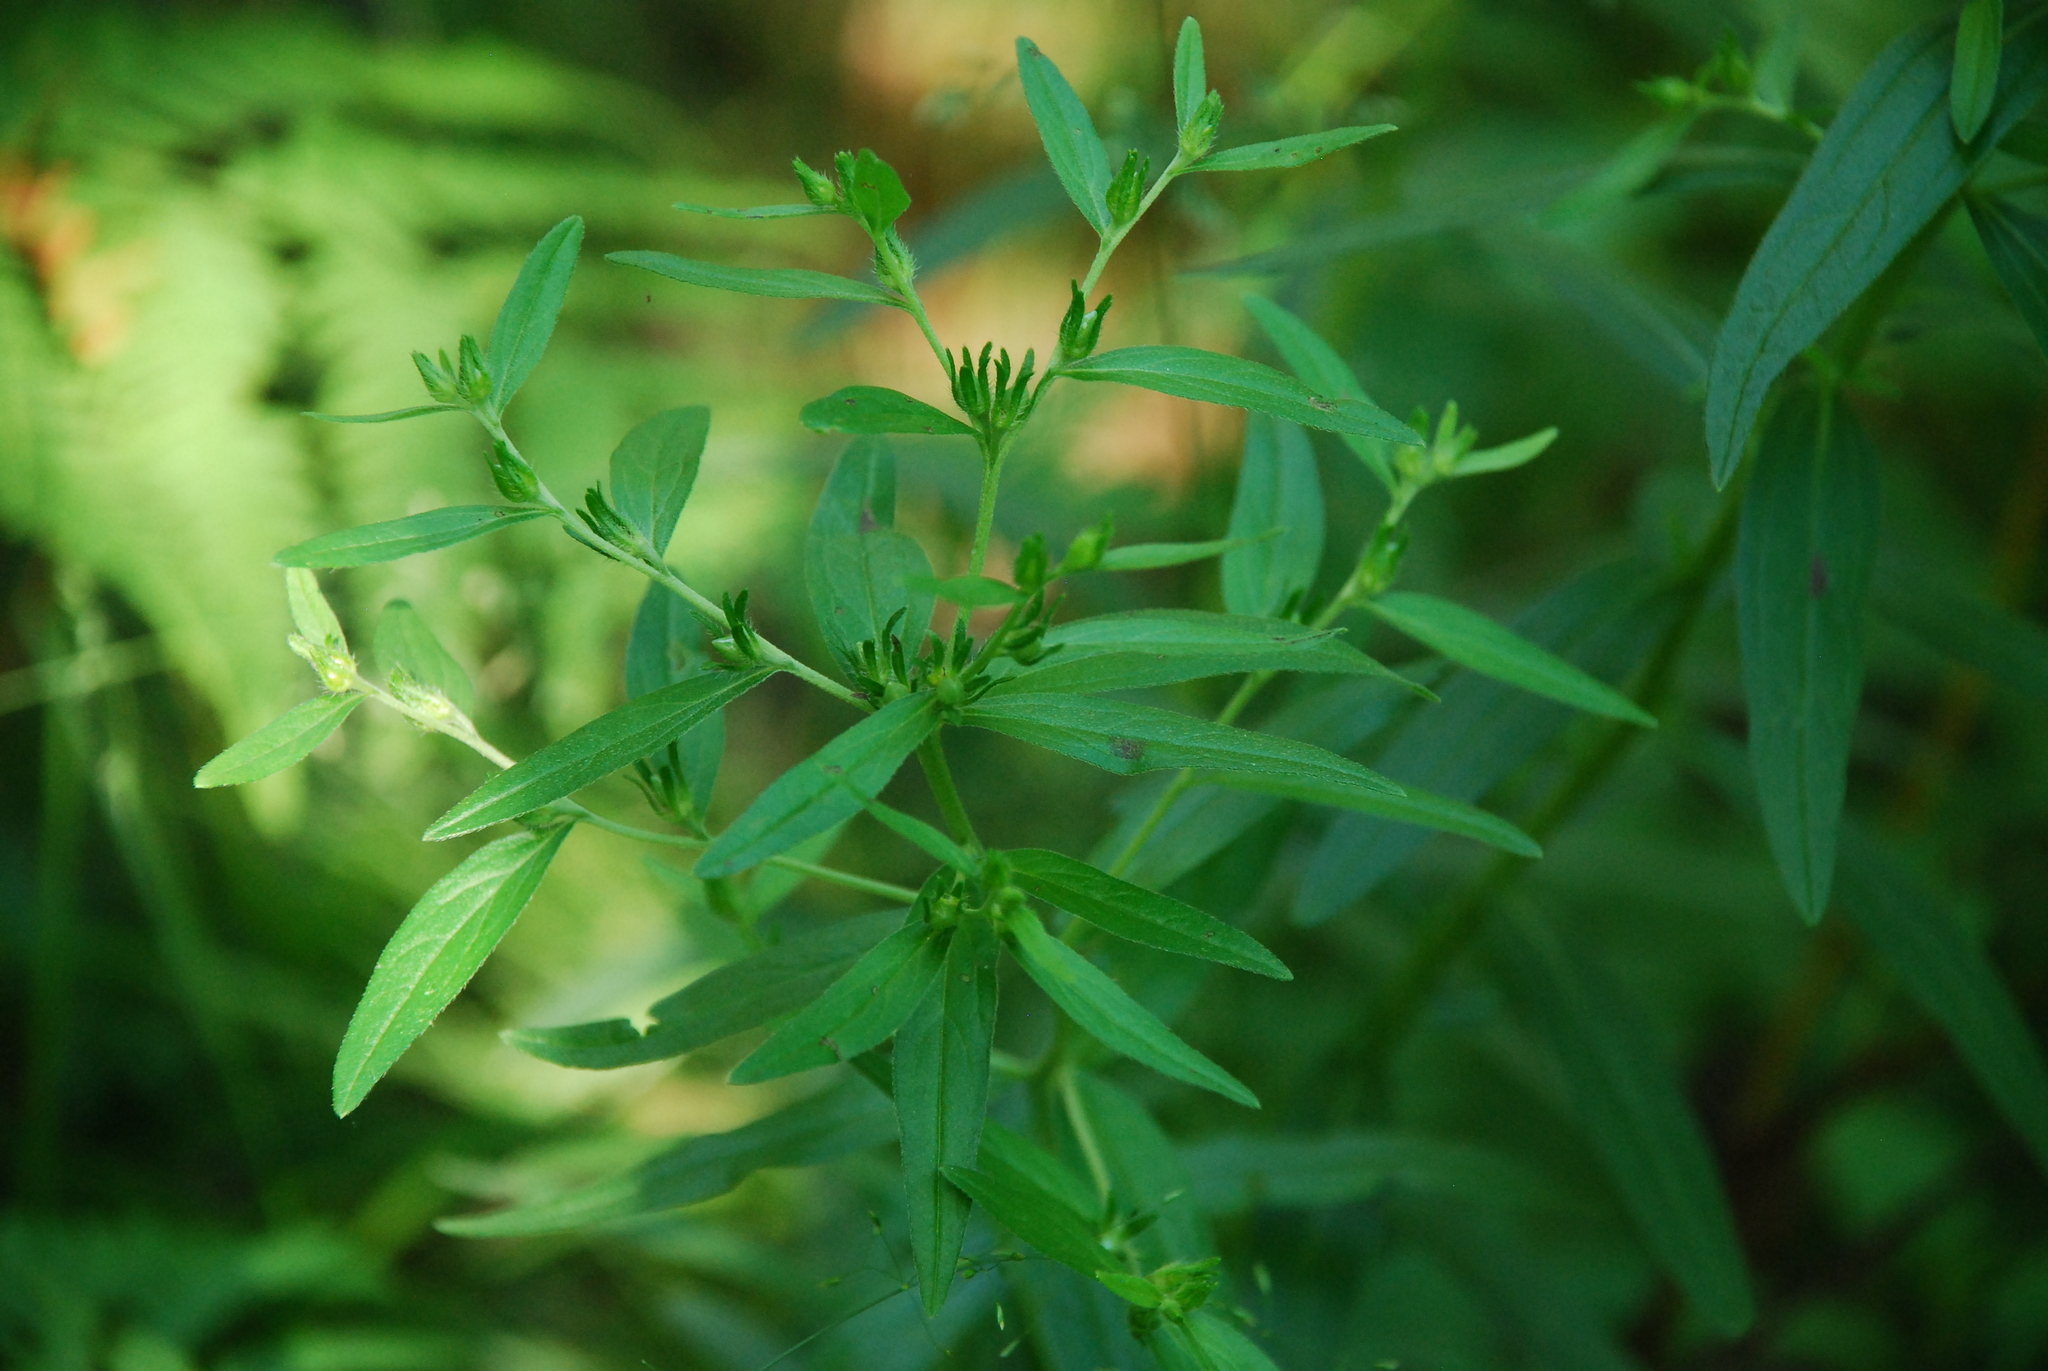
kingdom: Plantae
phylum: Tracheophyta
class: Magnoliopsida
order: Boraginales
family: Boraginaceae
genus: Lithospermum
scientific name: Lithospermum officinale
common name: Common gromwell
